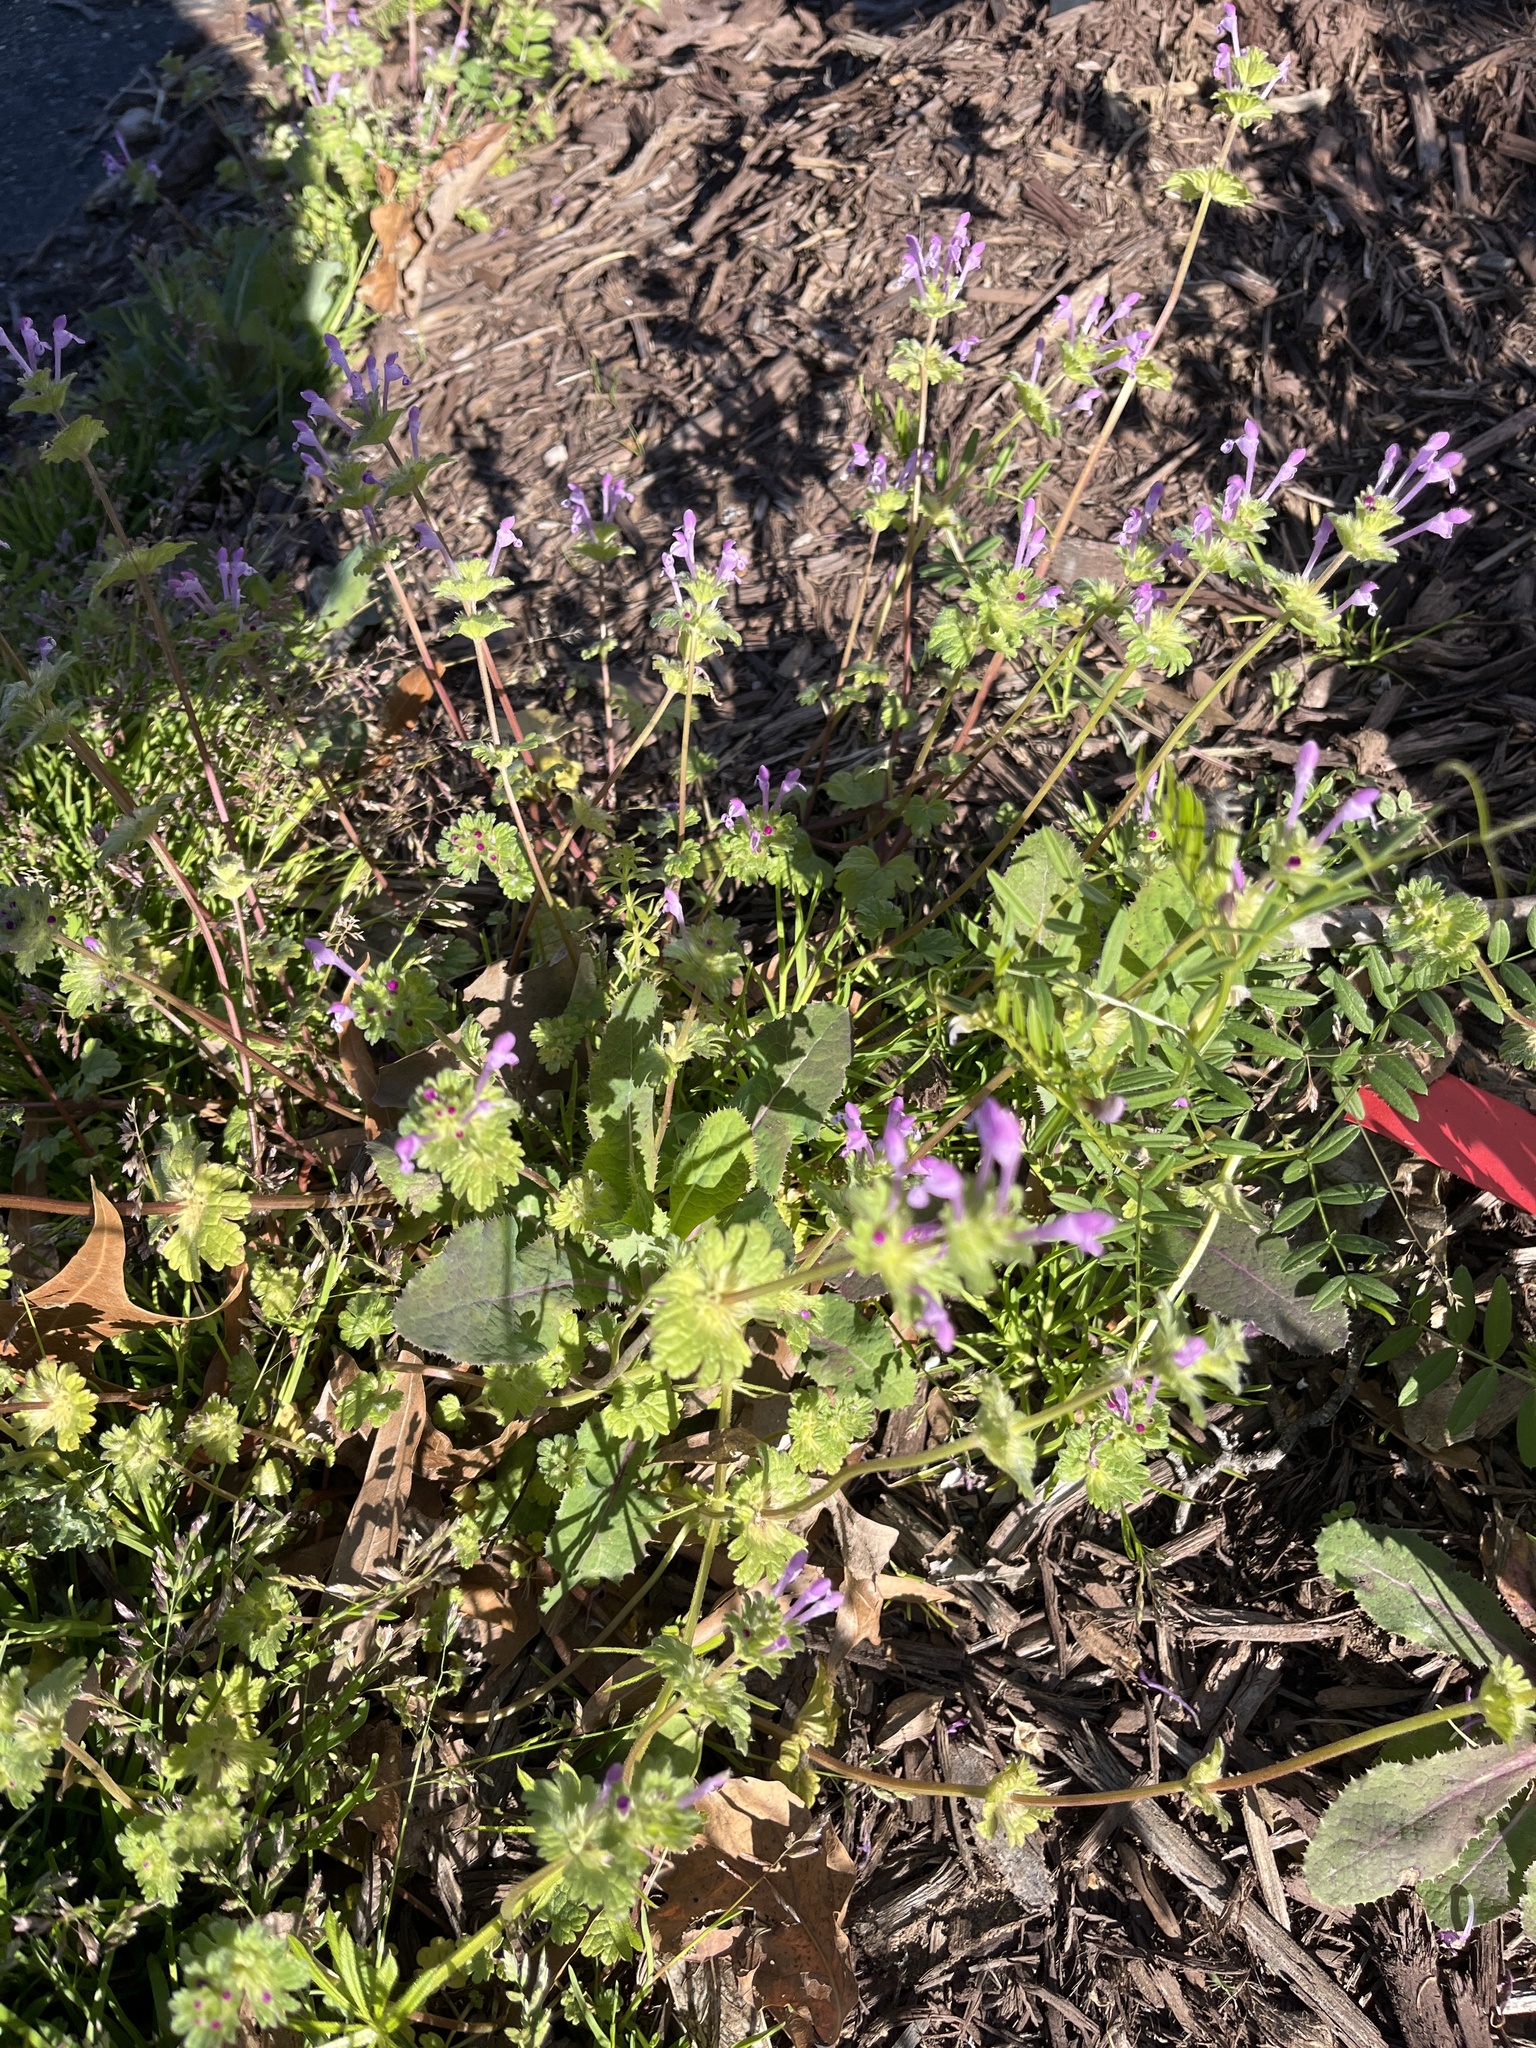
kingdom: Plantae
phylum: Tracheophyta
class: Magnoliopsida
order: Lamiales
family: Lamiaceae
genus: Lamium
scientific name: Lamium amplexicaule
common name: Henbit dead-nettle
